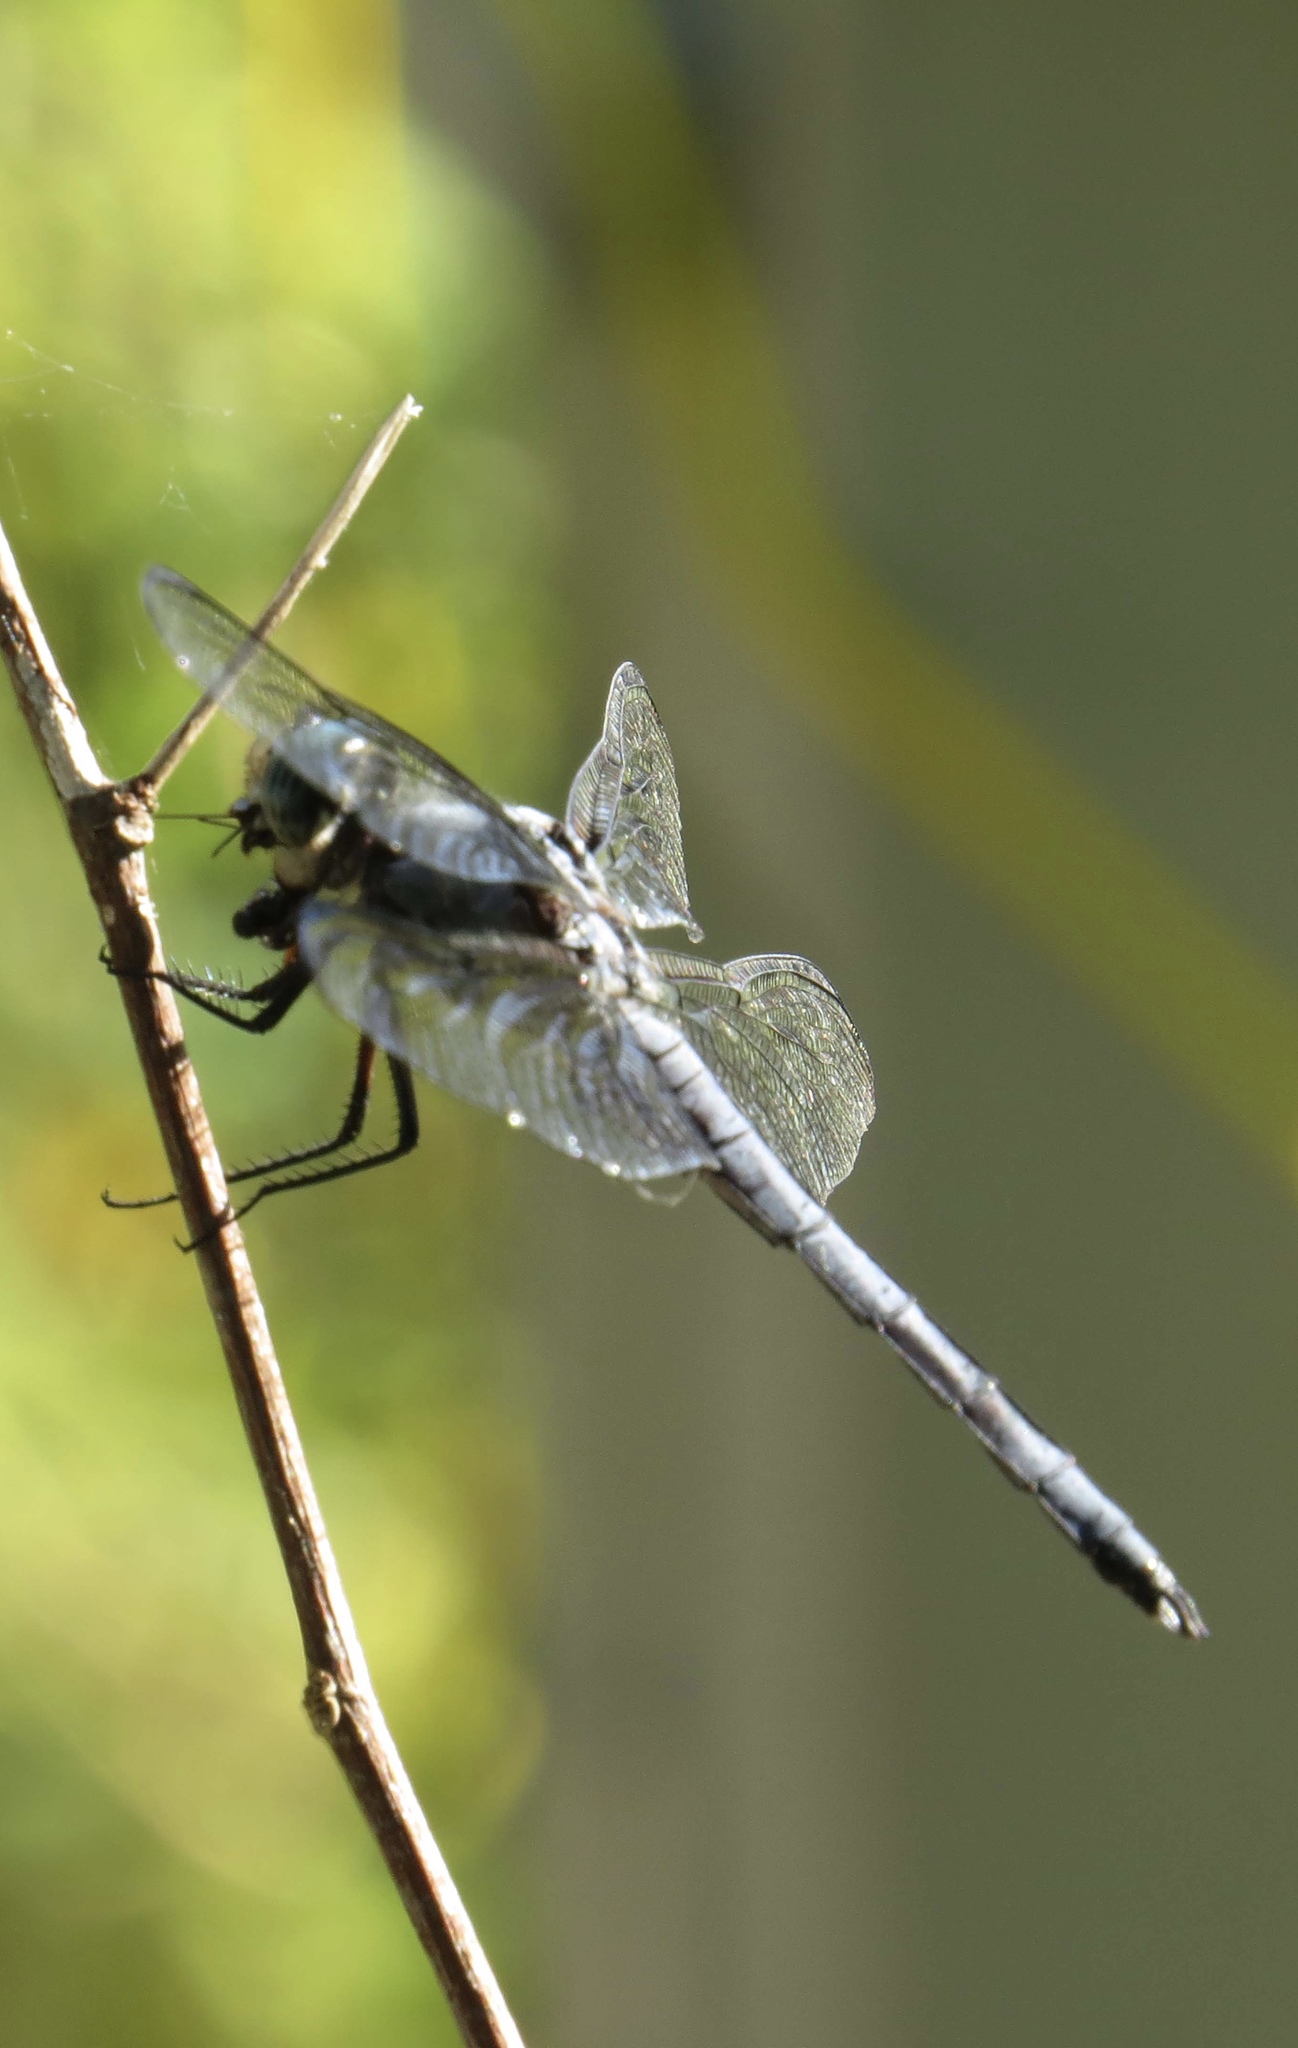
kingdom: Animalia
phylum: Arthropoda
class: Insecta
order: Odonata
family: Libellulidae
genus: Libellula
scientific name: Libellula vibrans
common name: Great blue skimmer
